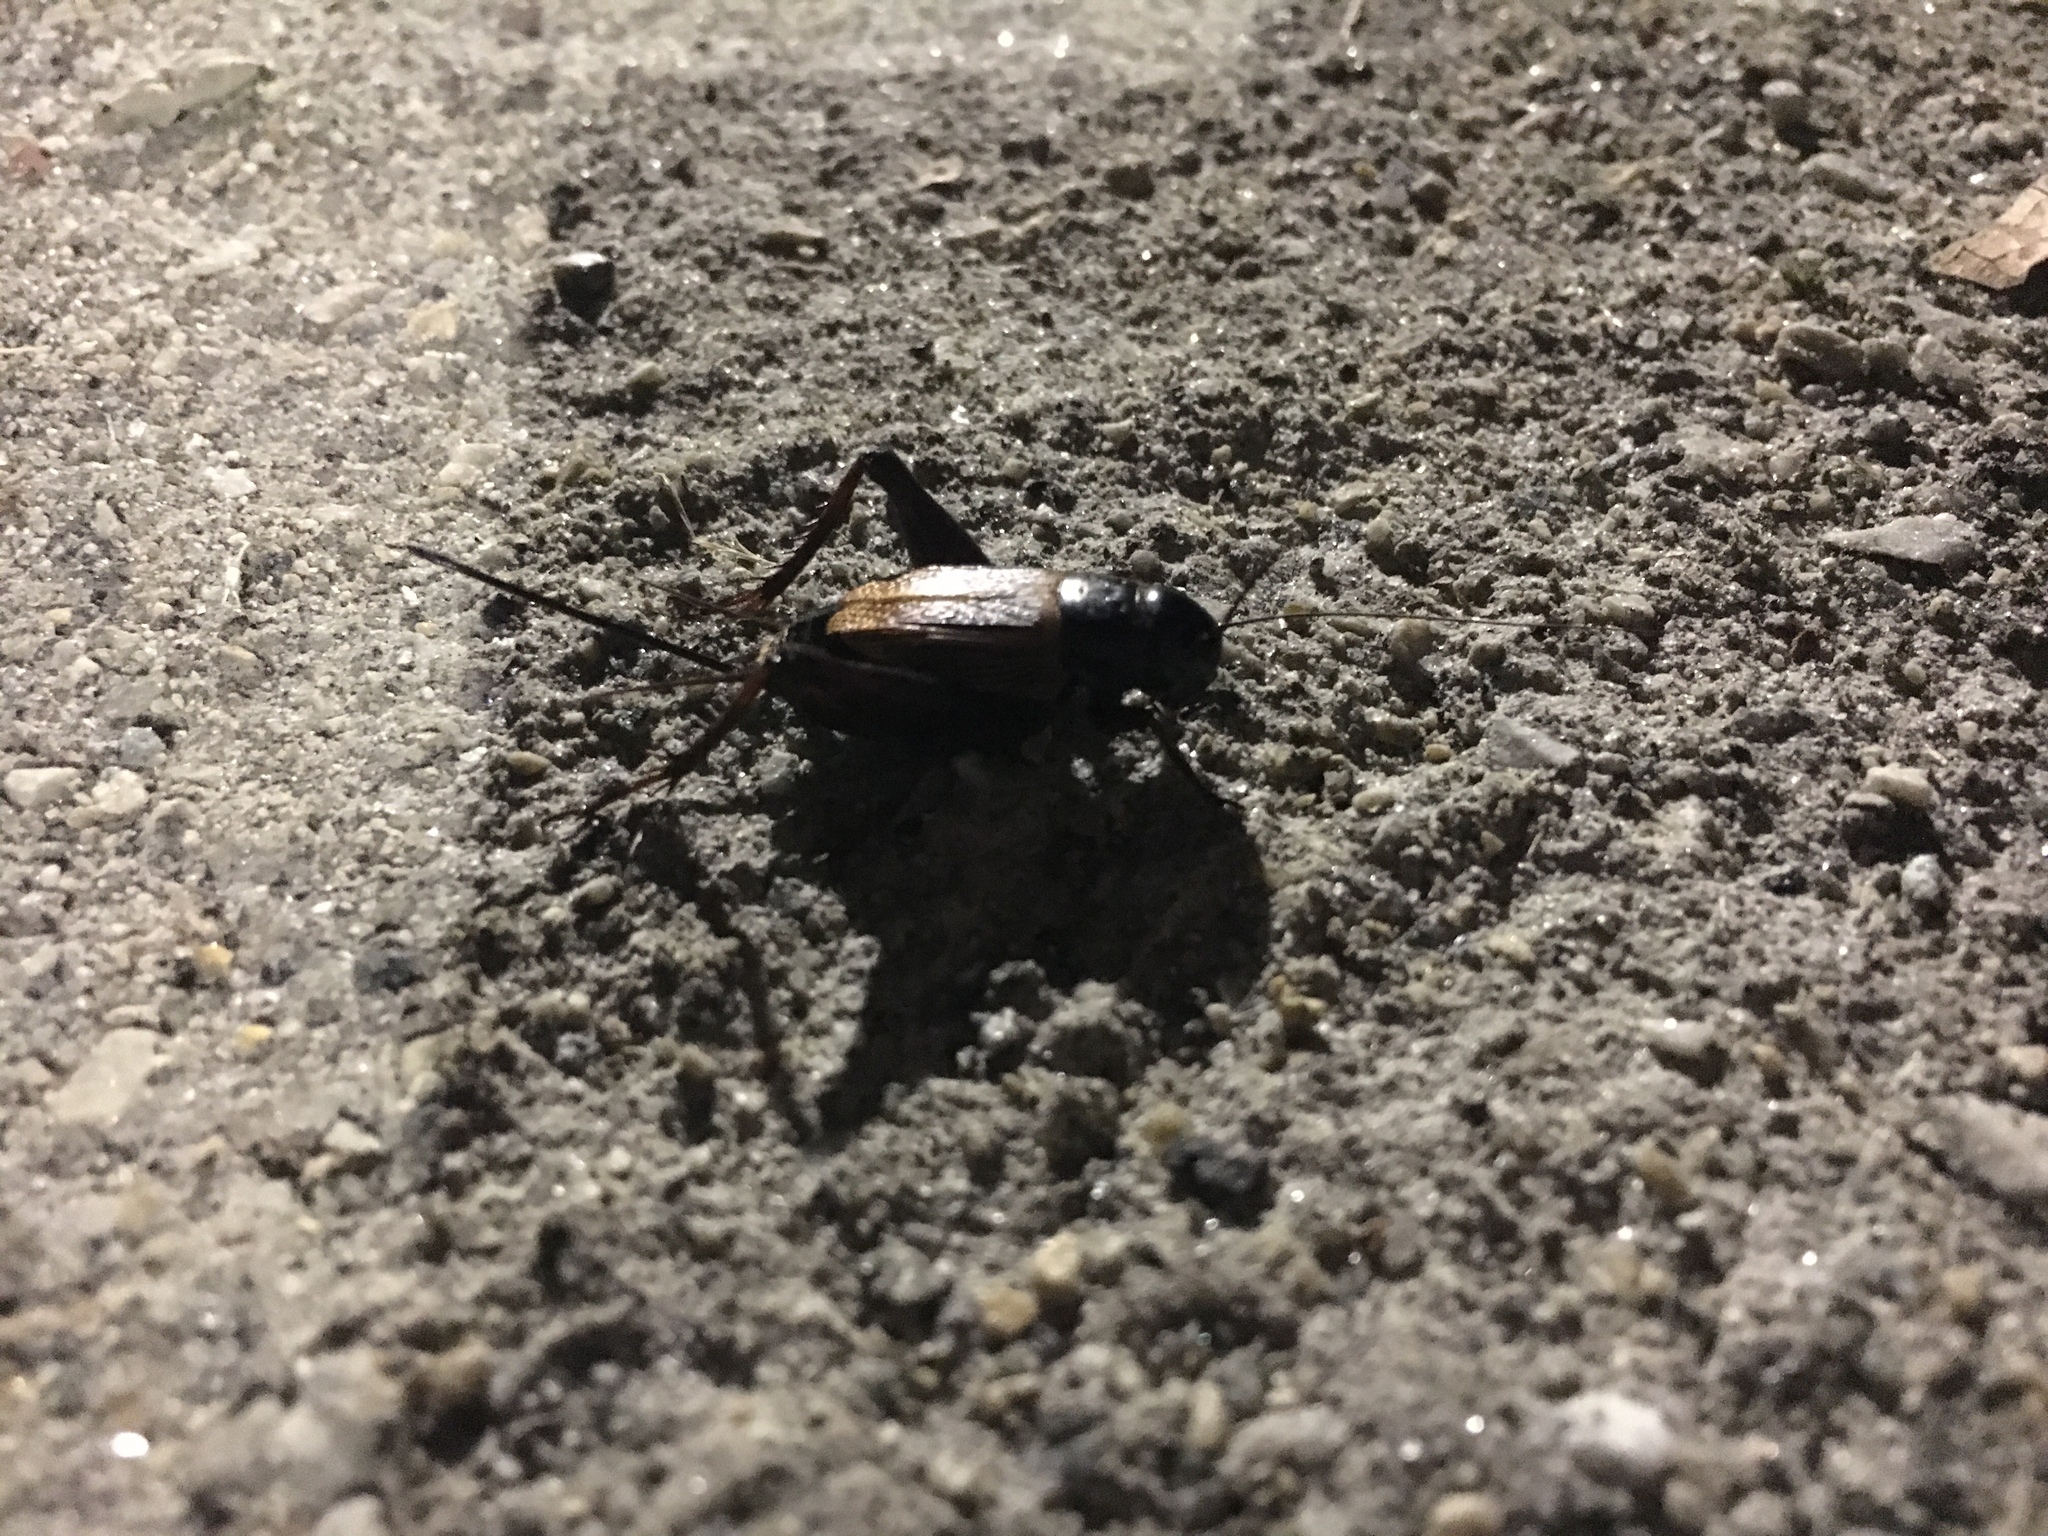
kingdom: Animalia
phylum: Arthropoda
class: Insecta
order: Orthoptera
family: Gryllidae
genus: Gryllus
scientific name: Gryllus pennsylvanicus
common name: Fall field cricket
